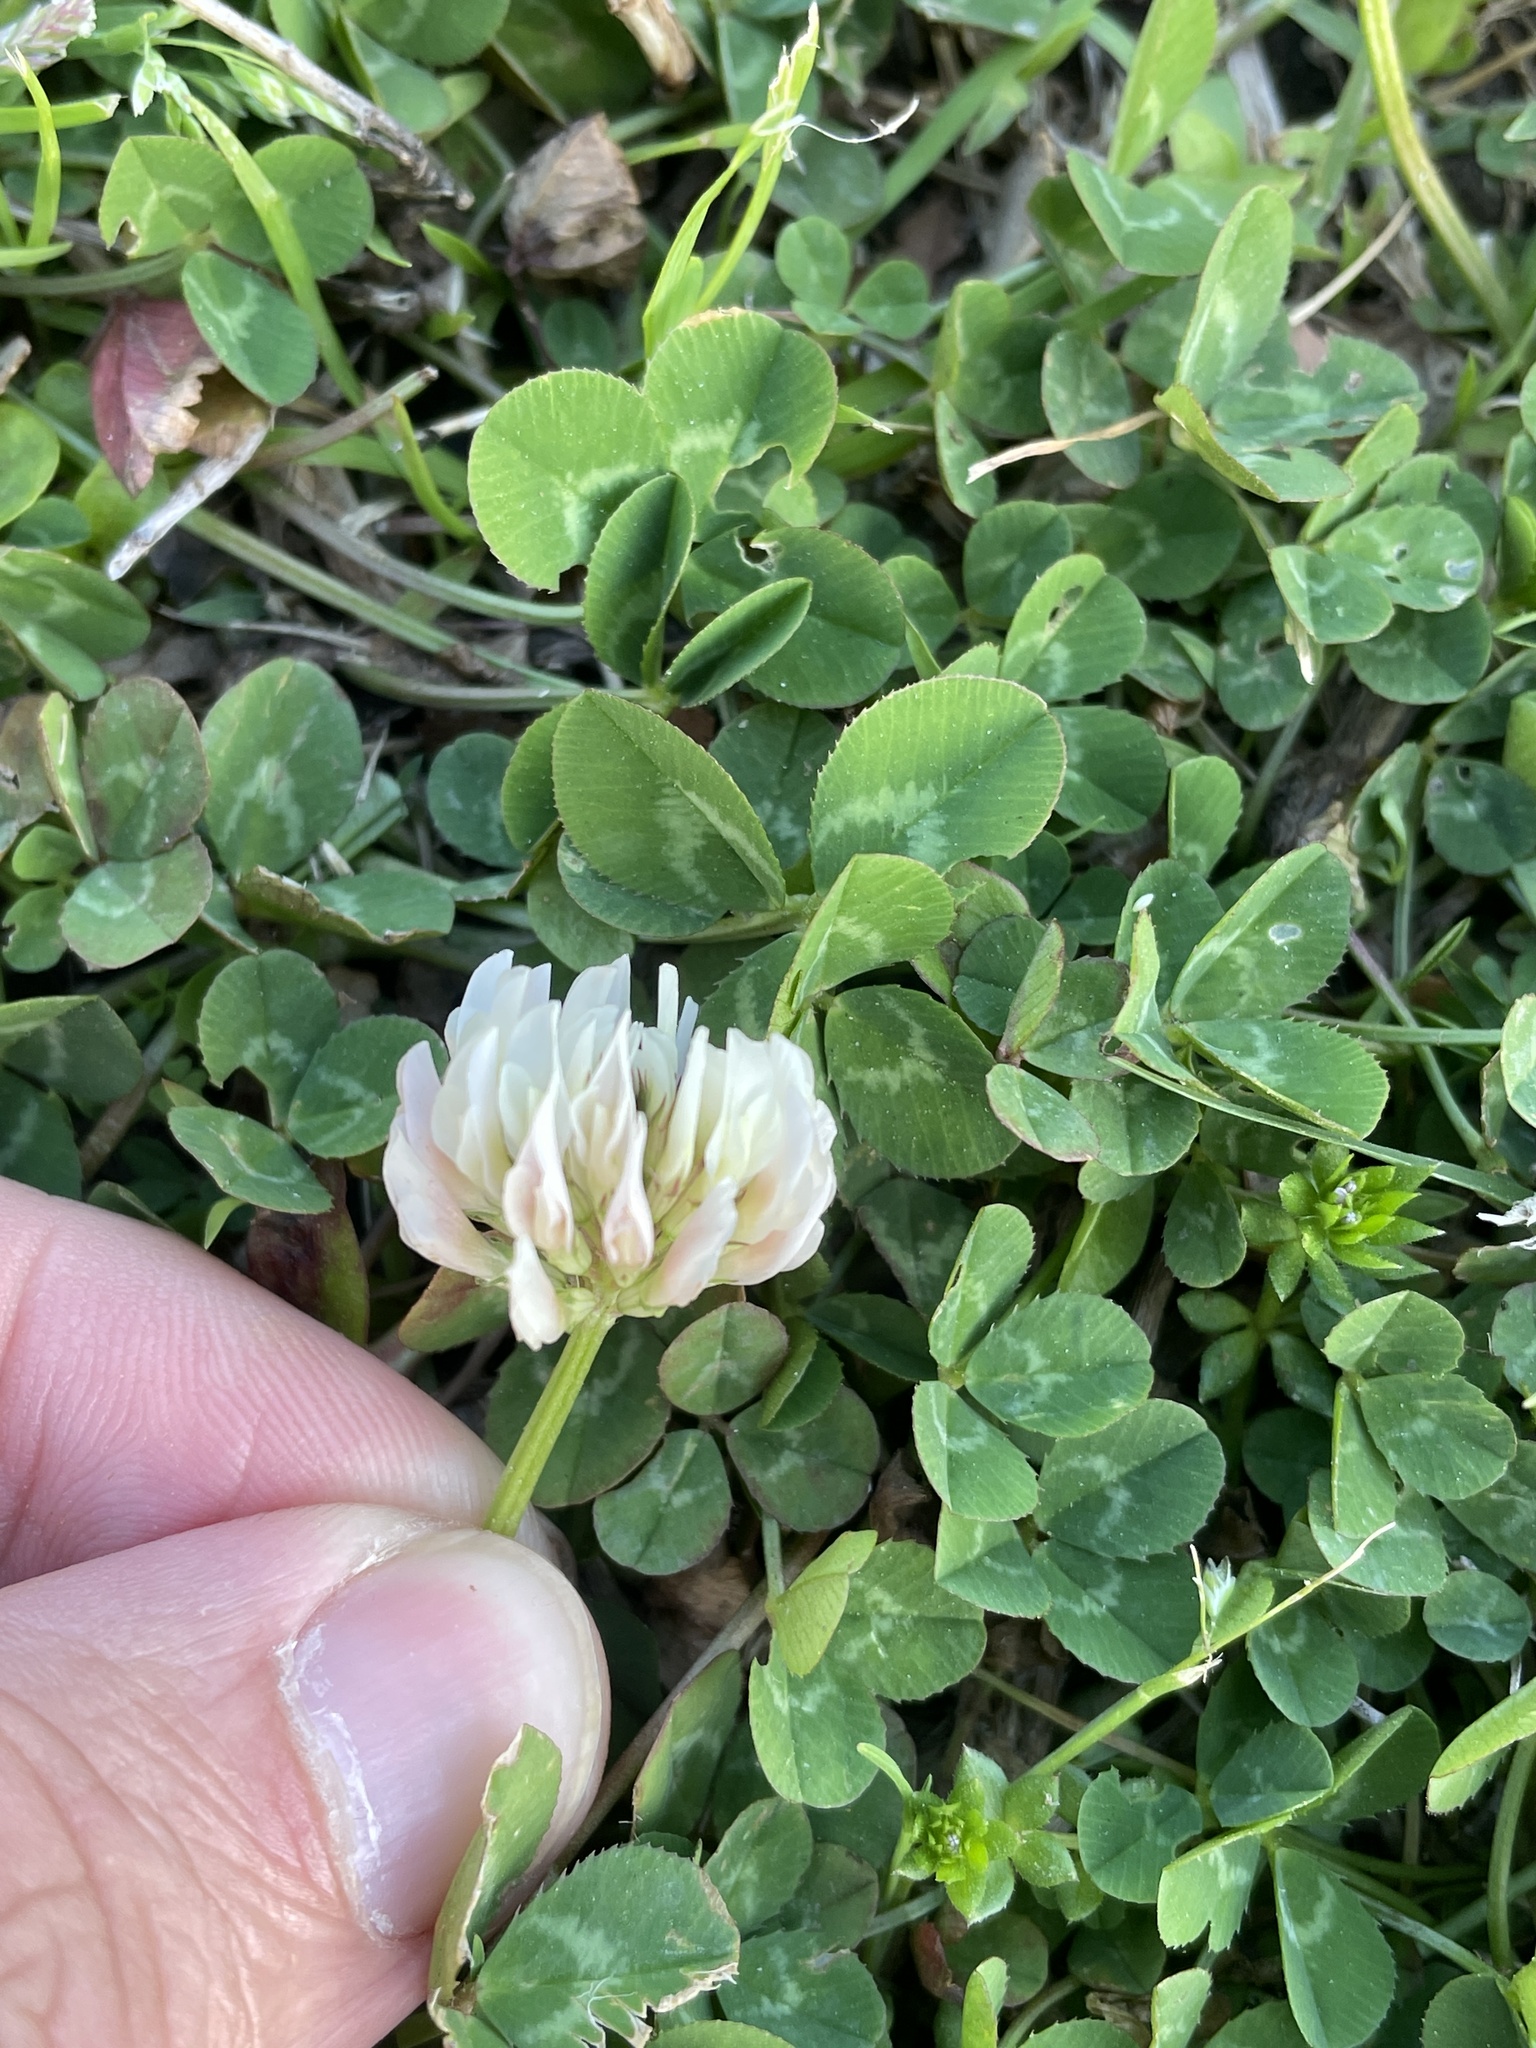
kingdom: Plantae
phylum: Tracheophyta
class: Magnoliopsida
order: Fabales
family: Fabaceae
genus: Trifolium
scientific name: Trifolium repens
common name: White clover
